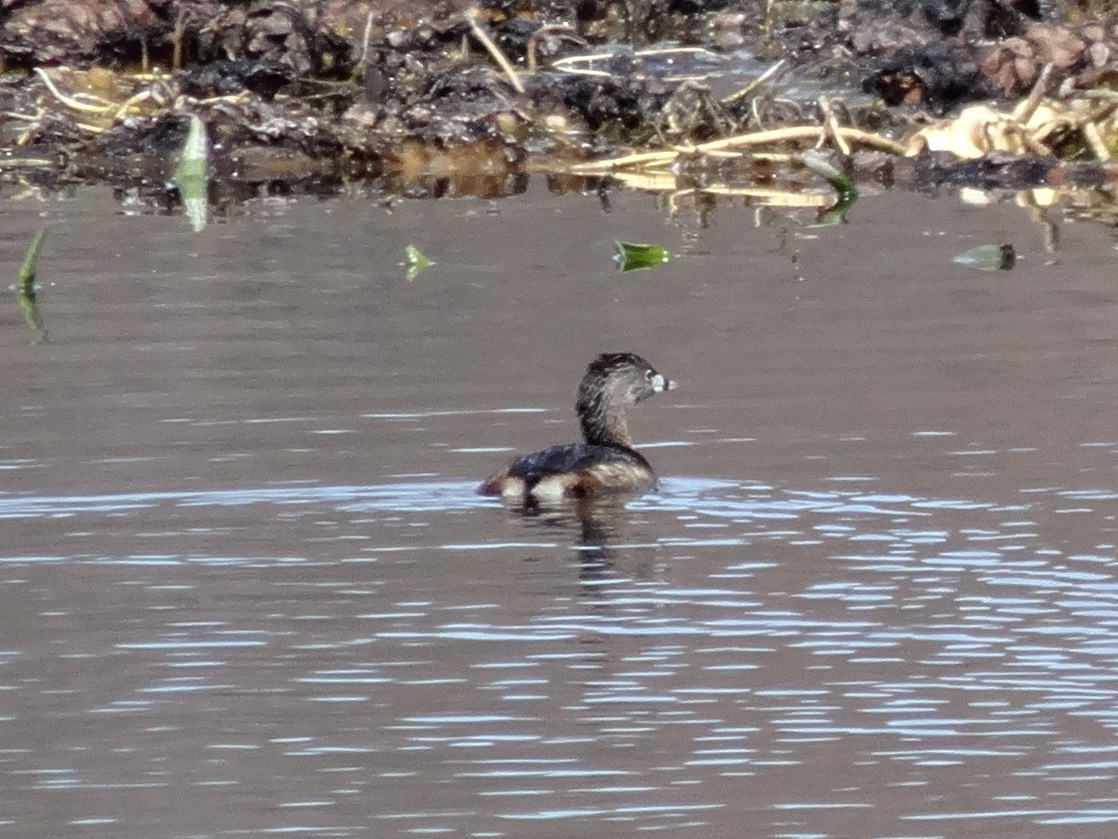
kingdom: Animalia
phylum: Chordata
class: Aves
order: Podicipediformes
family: Podicipedidae
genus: Podilymbus
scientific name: Podilymbus podiceps
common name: Pied-billed grebe
